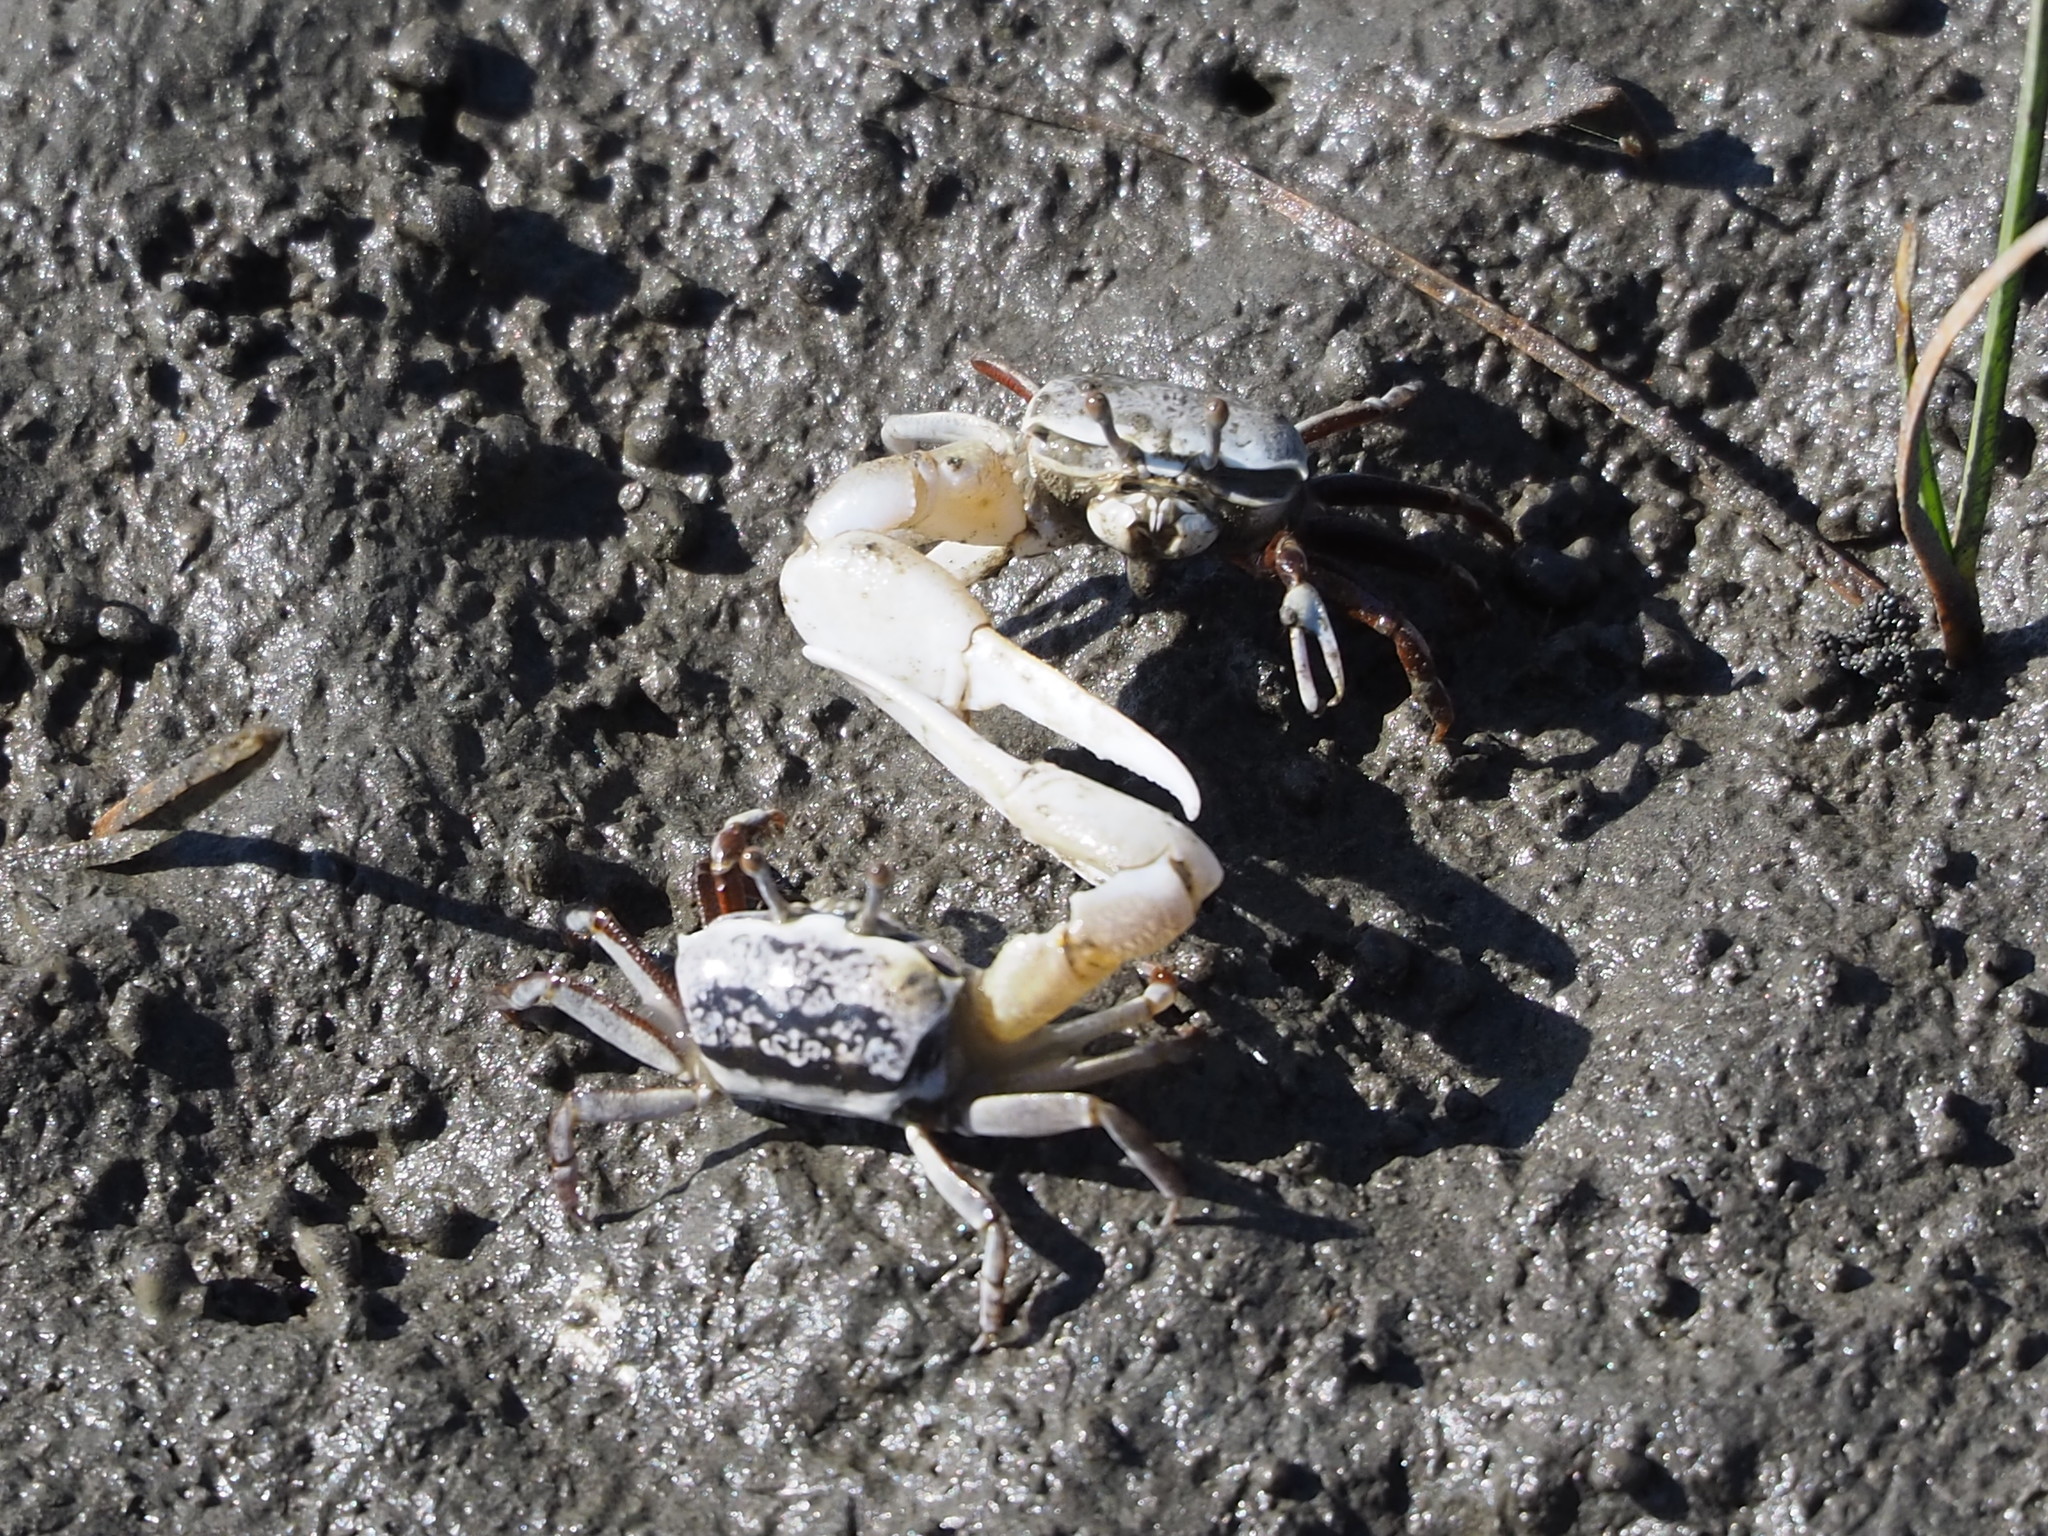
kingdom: Animalia
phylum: Arthropoda
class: Malacostraca
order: Decapoda
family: Ocypodidae
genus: Austruca
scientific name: Austruca lactea
